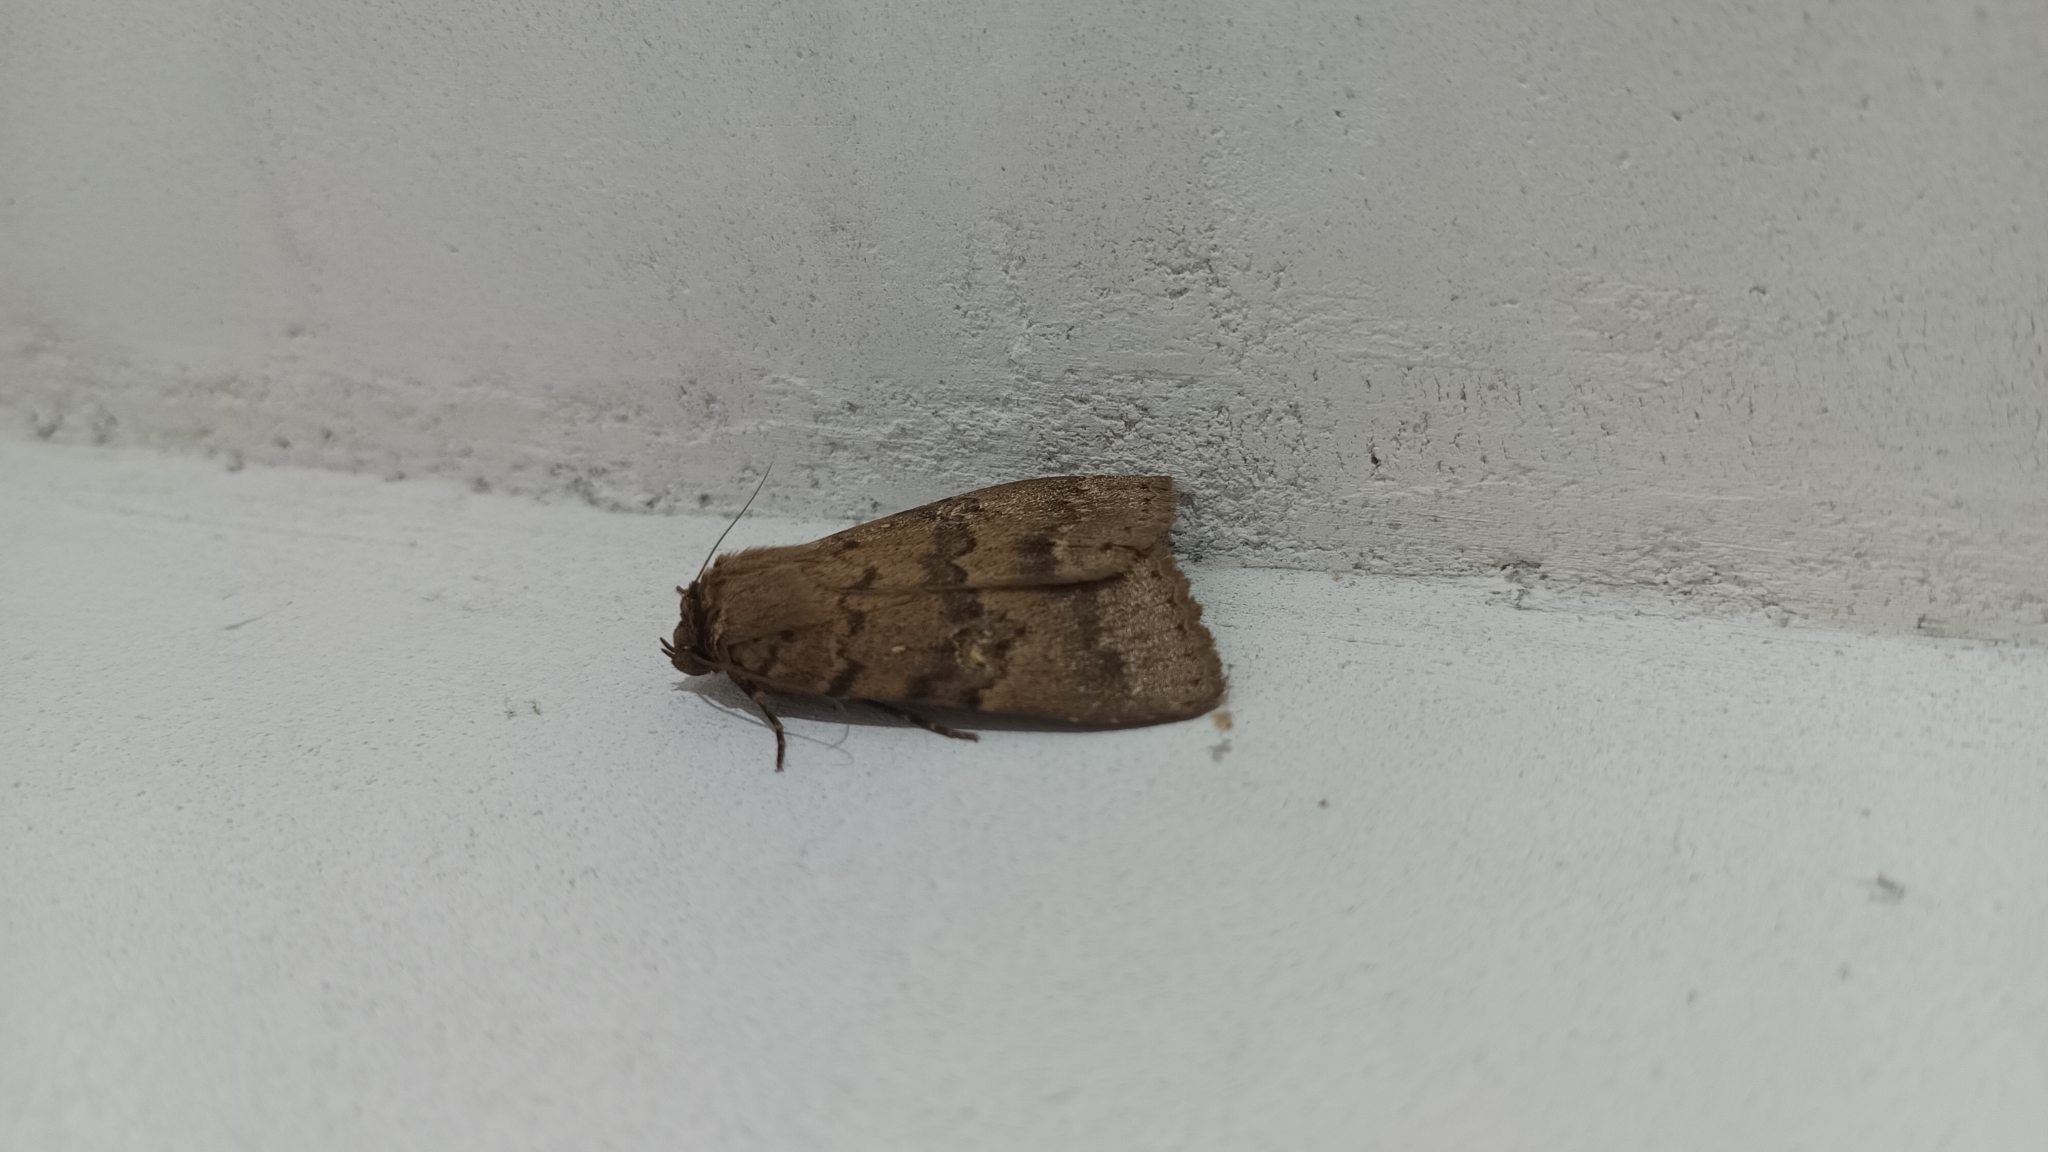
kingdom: Animalia
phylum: Arthropoda
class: Insecta
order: Lepidoptera
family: Erebidae
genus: Apopestes
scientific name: Apopestes spectrum
